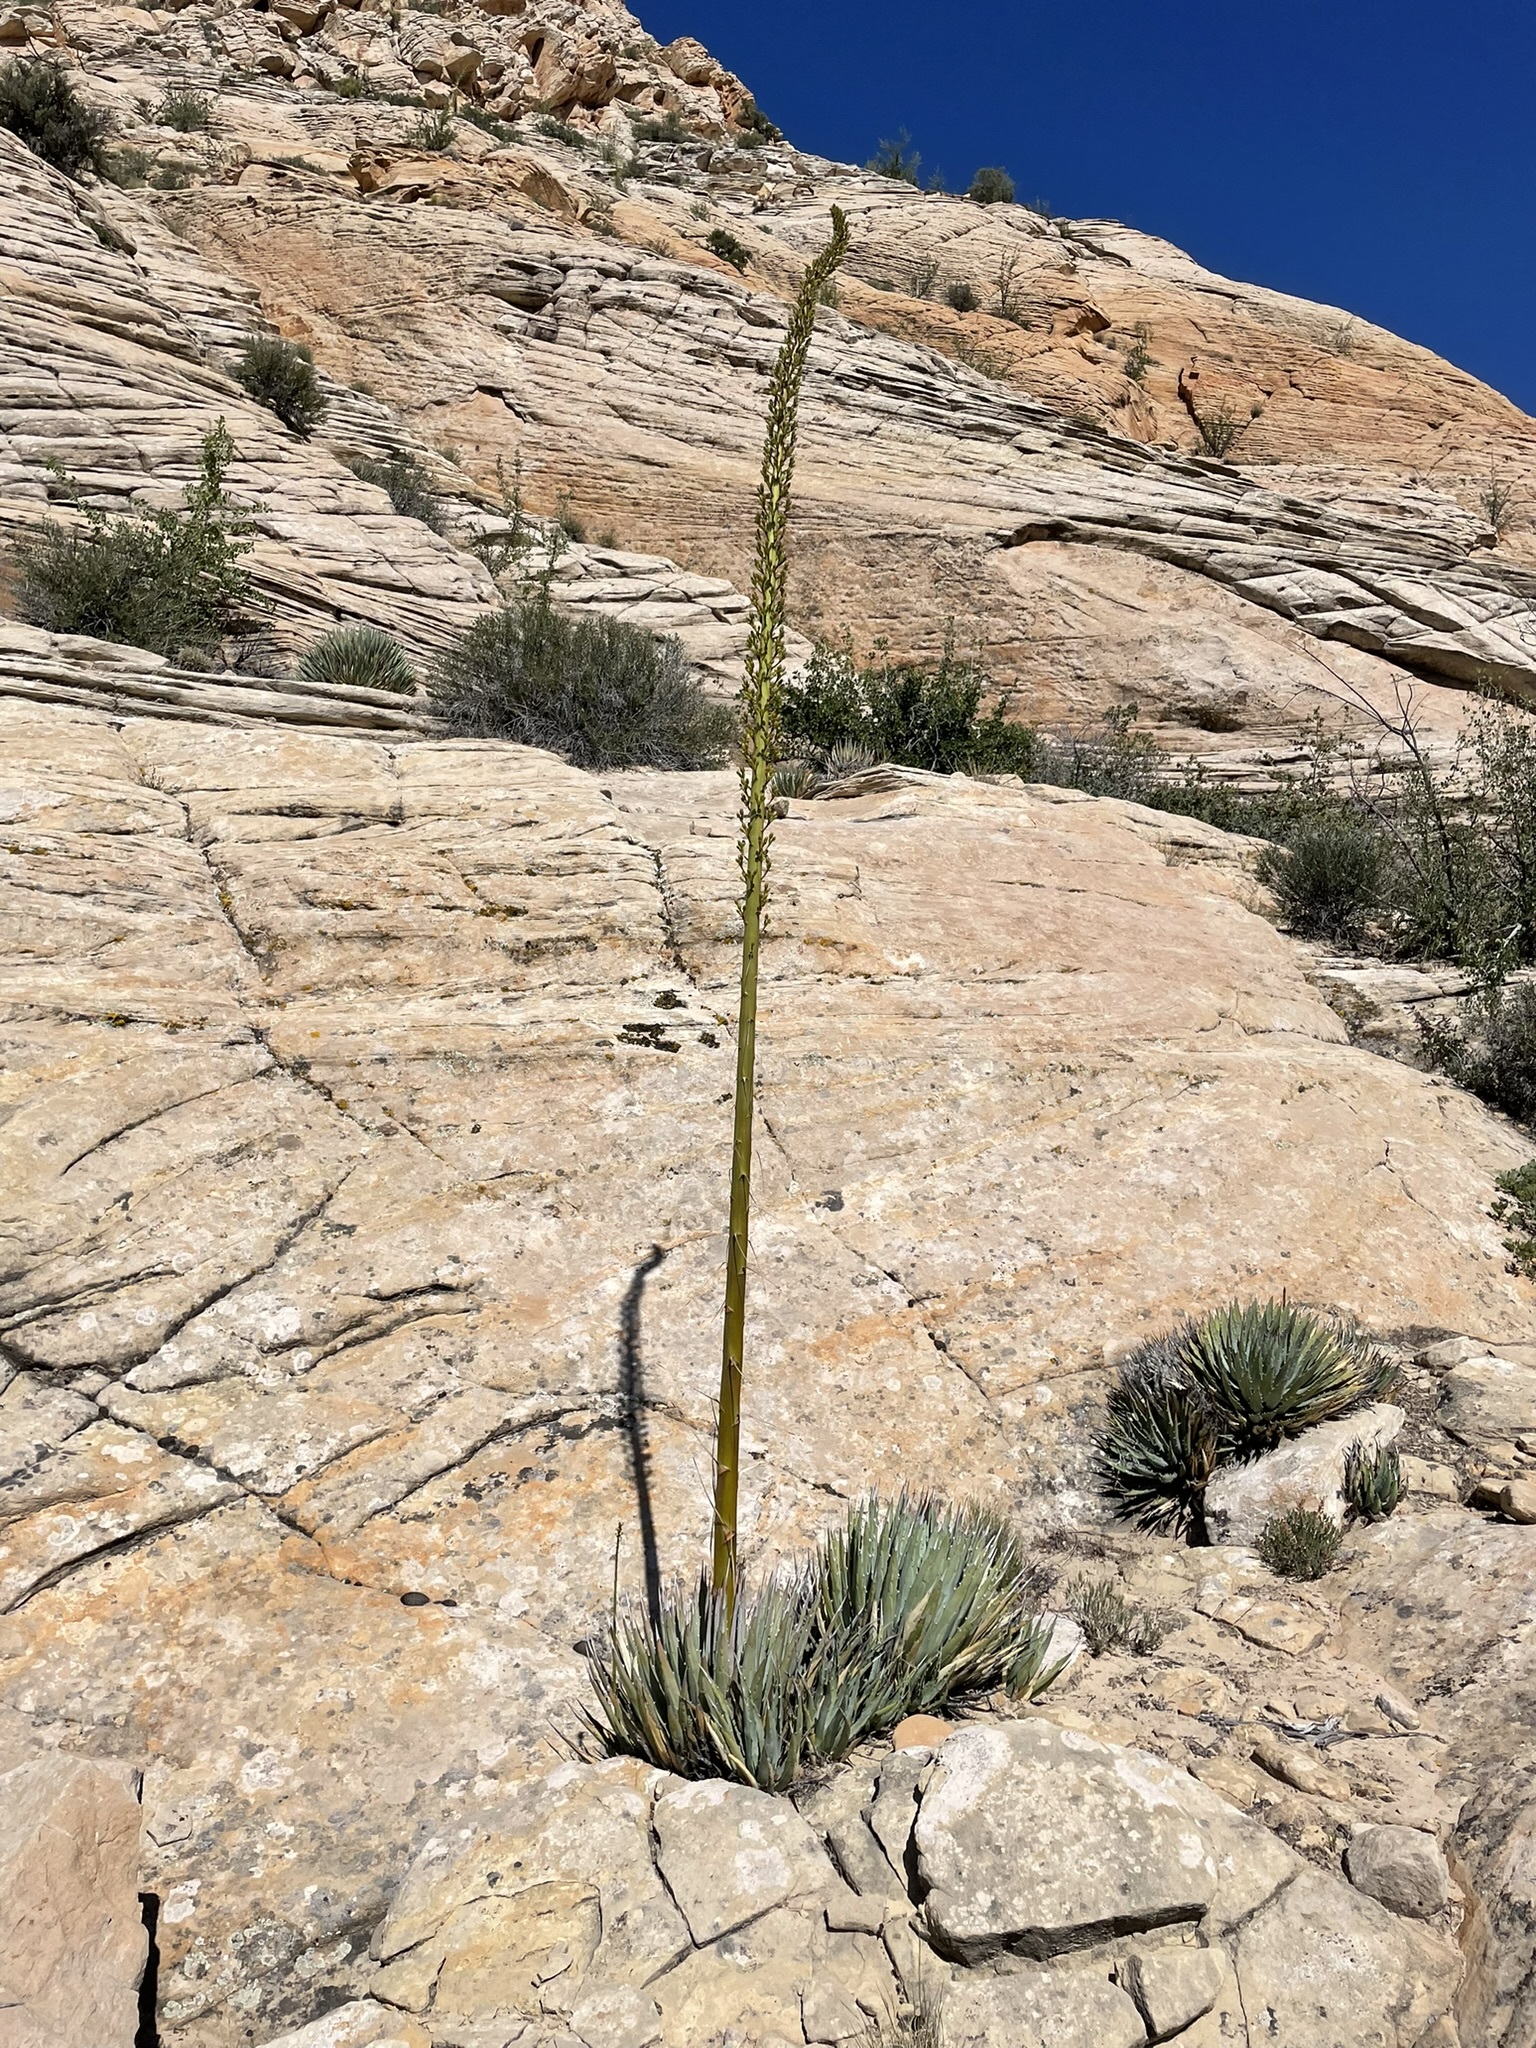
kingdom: Plantae
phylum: Tracheophyta
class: Liliopsida
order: Asparagales
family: Asparagaceae
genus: Agave
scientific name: Agave utahensis
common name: Utah agave
